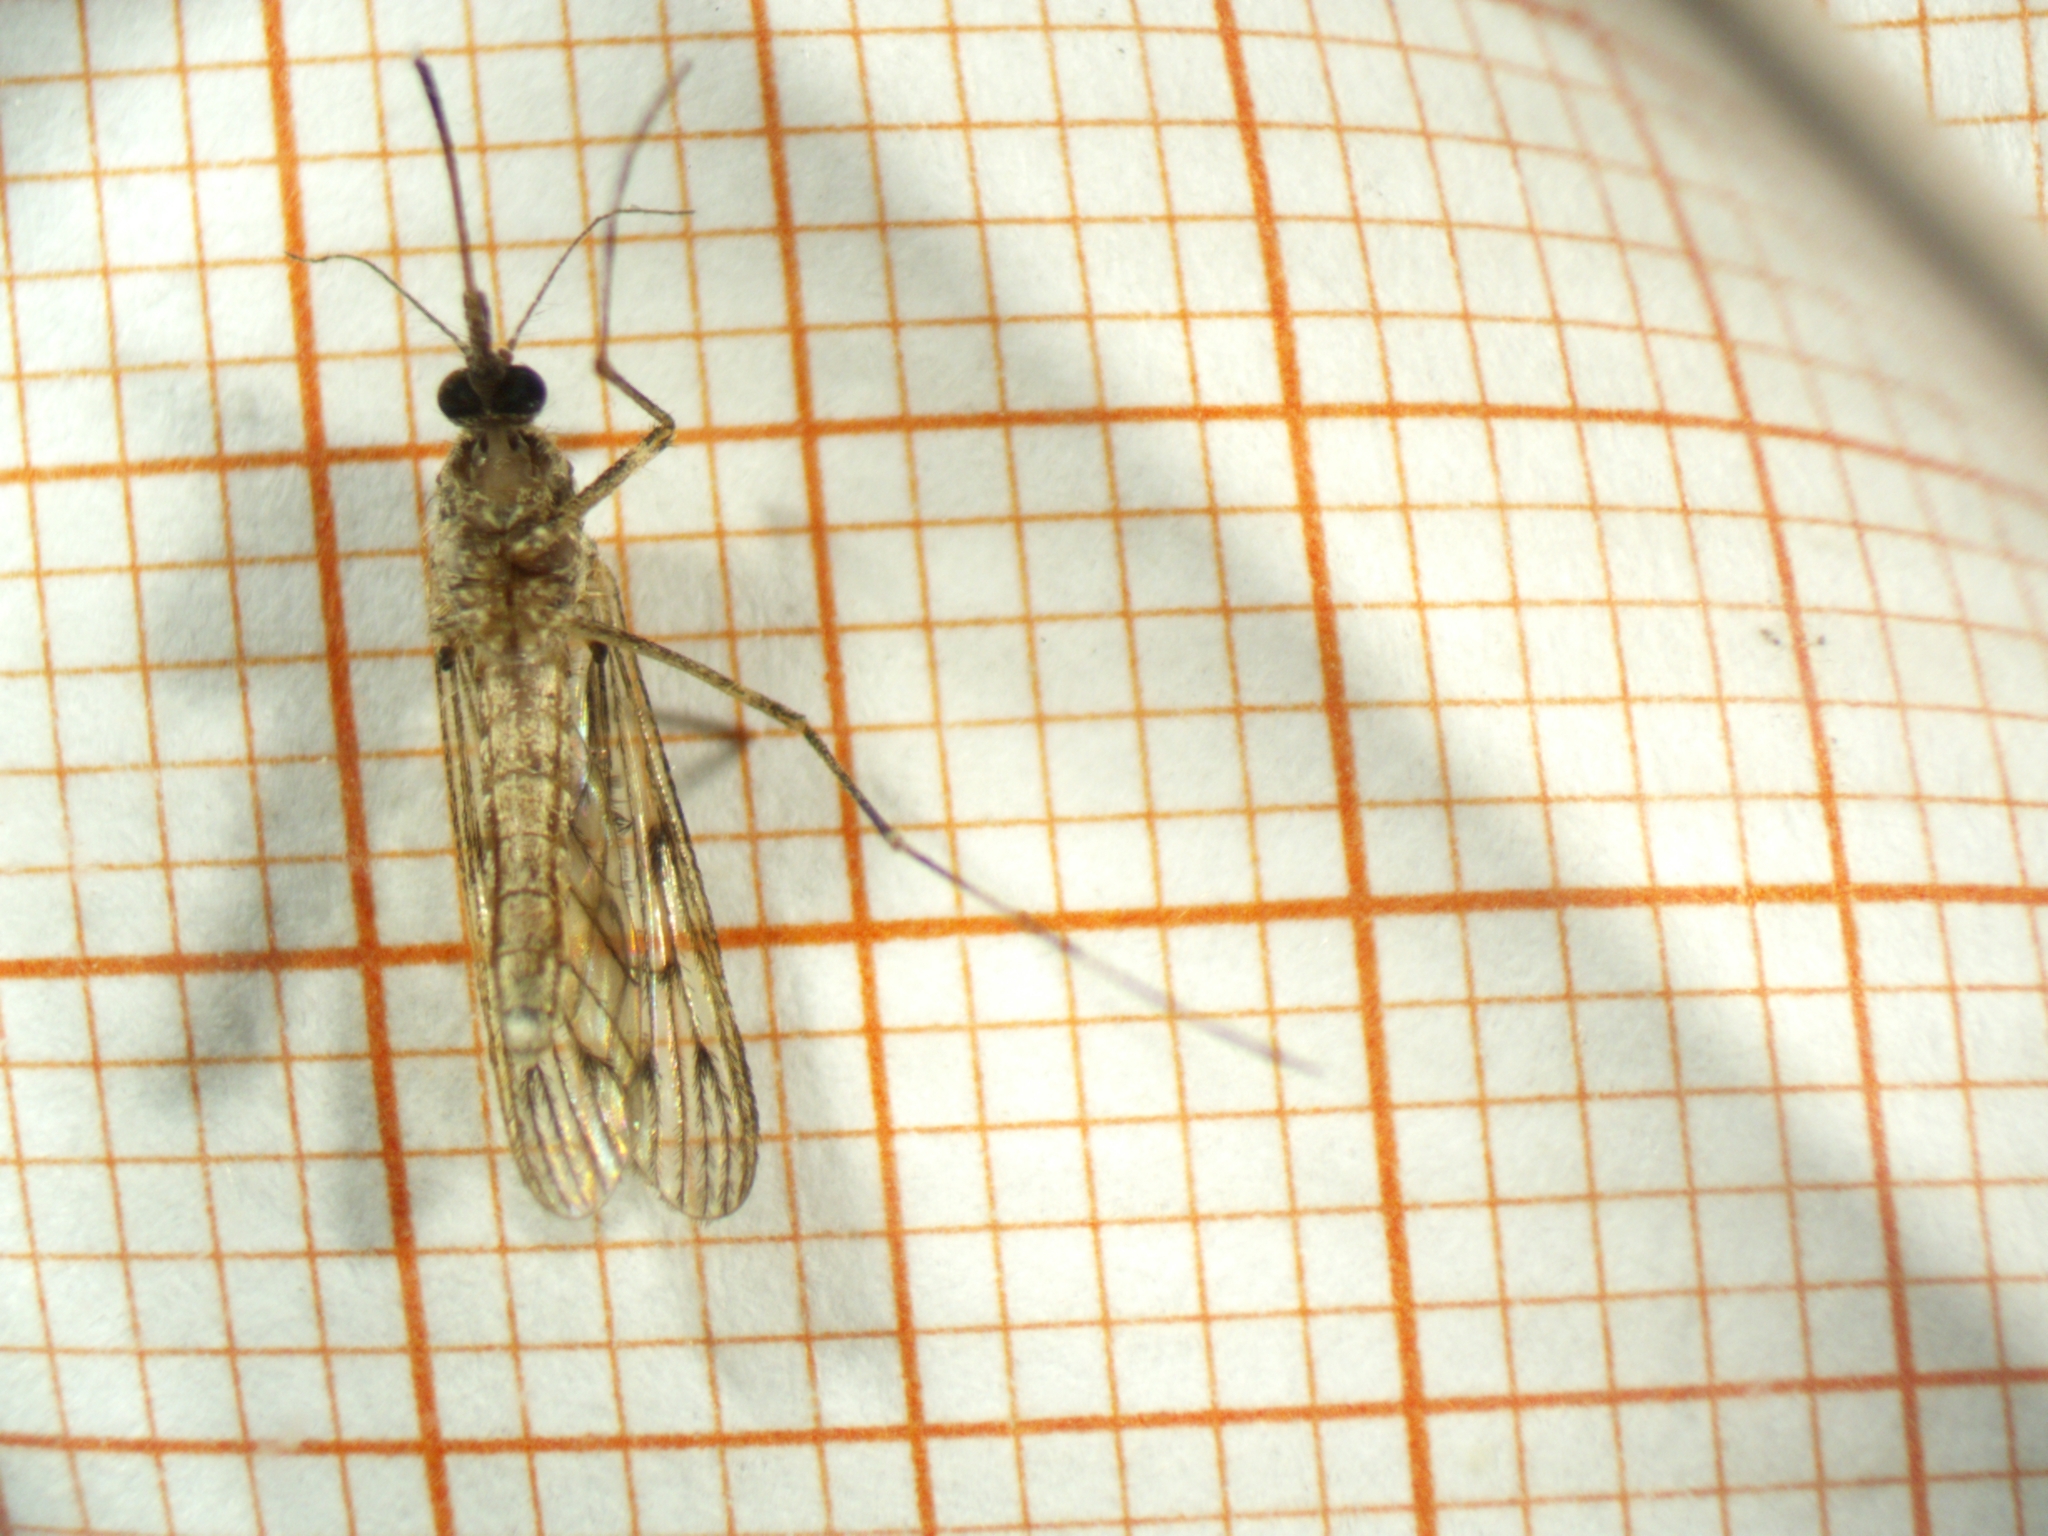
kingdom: Animalia
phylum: Arthropoda
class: Insecta
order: Diptera
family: Culicidae
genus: Culiseta
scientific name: Culiseta annulata
